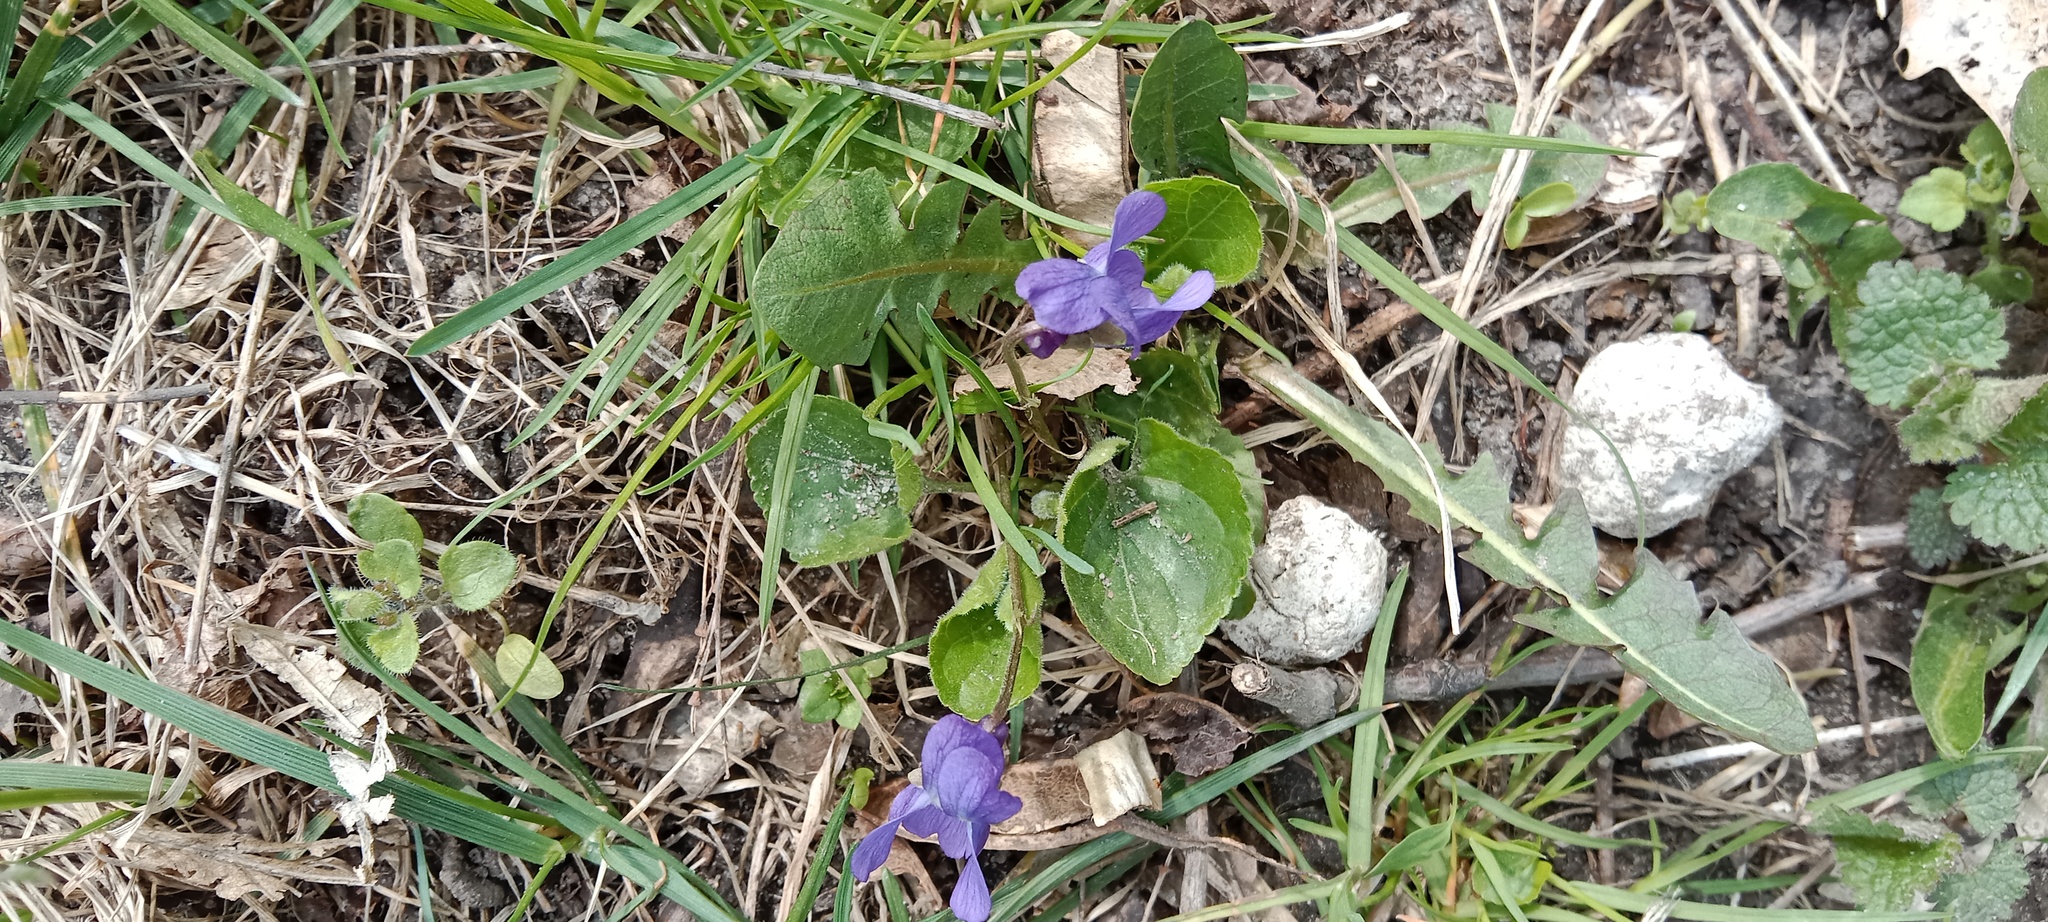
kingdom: Plantae
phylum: Tracheophyta
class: Magnoliopsida
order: Malpighiales
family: Violaceae
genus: Viola
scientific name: Viola odorata
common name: Sweet violet
